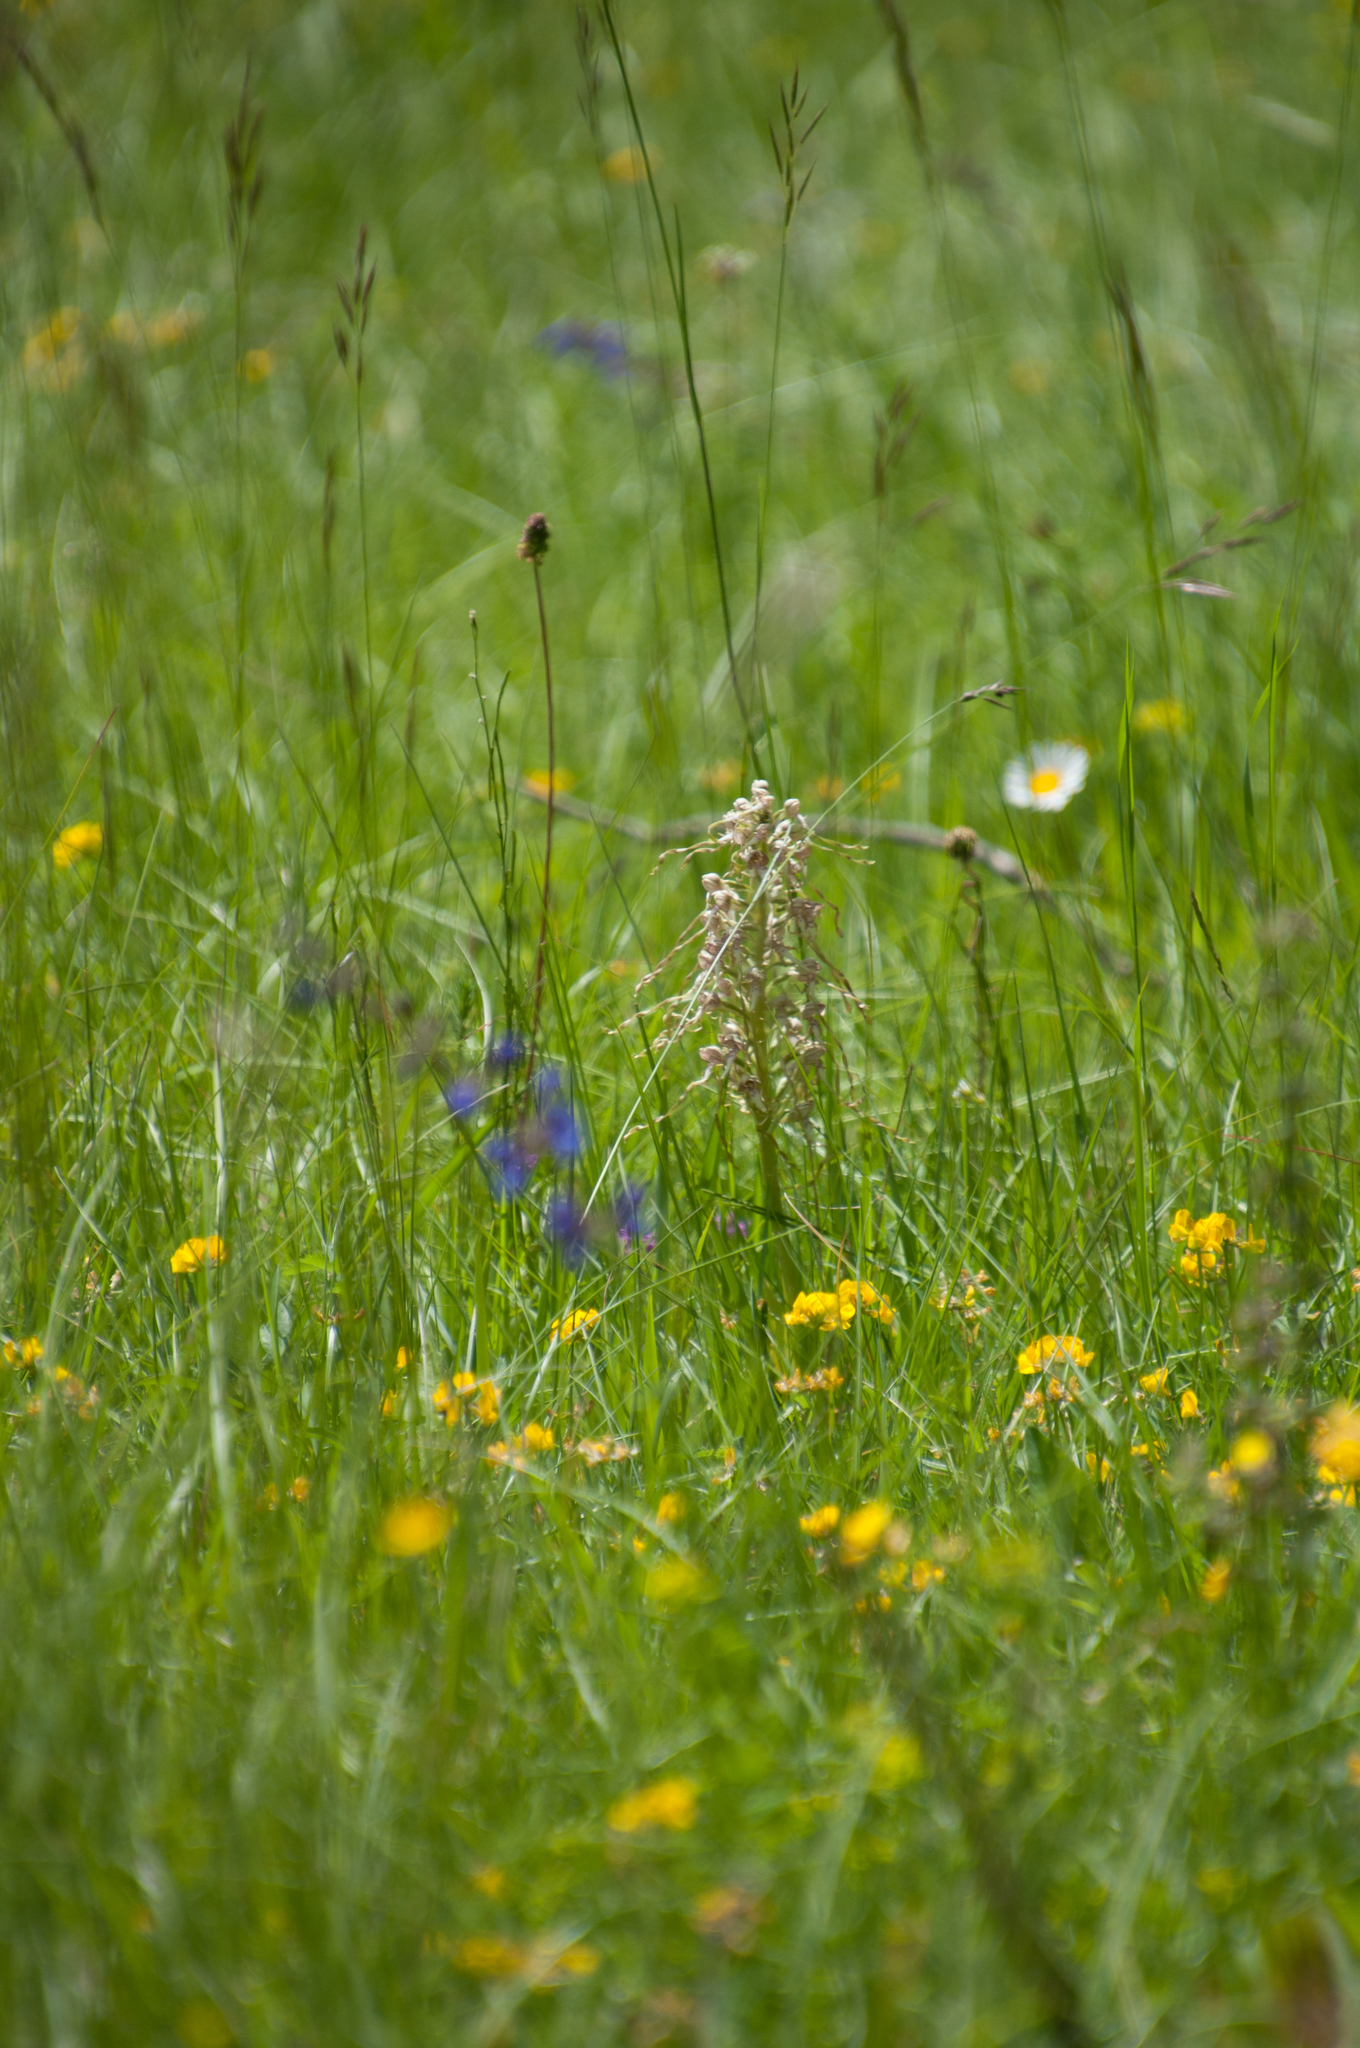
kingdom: Plantae
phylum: Tracheophyta
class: Liliopsida
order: Asparagales
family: Orchidaceae
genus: Himantoglossum
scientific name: Himantoglossum hircinum
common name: Lizard orchid
